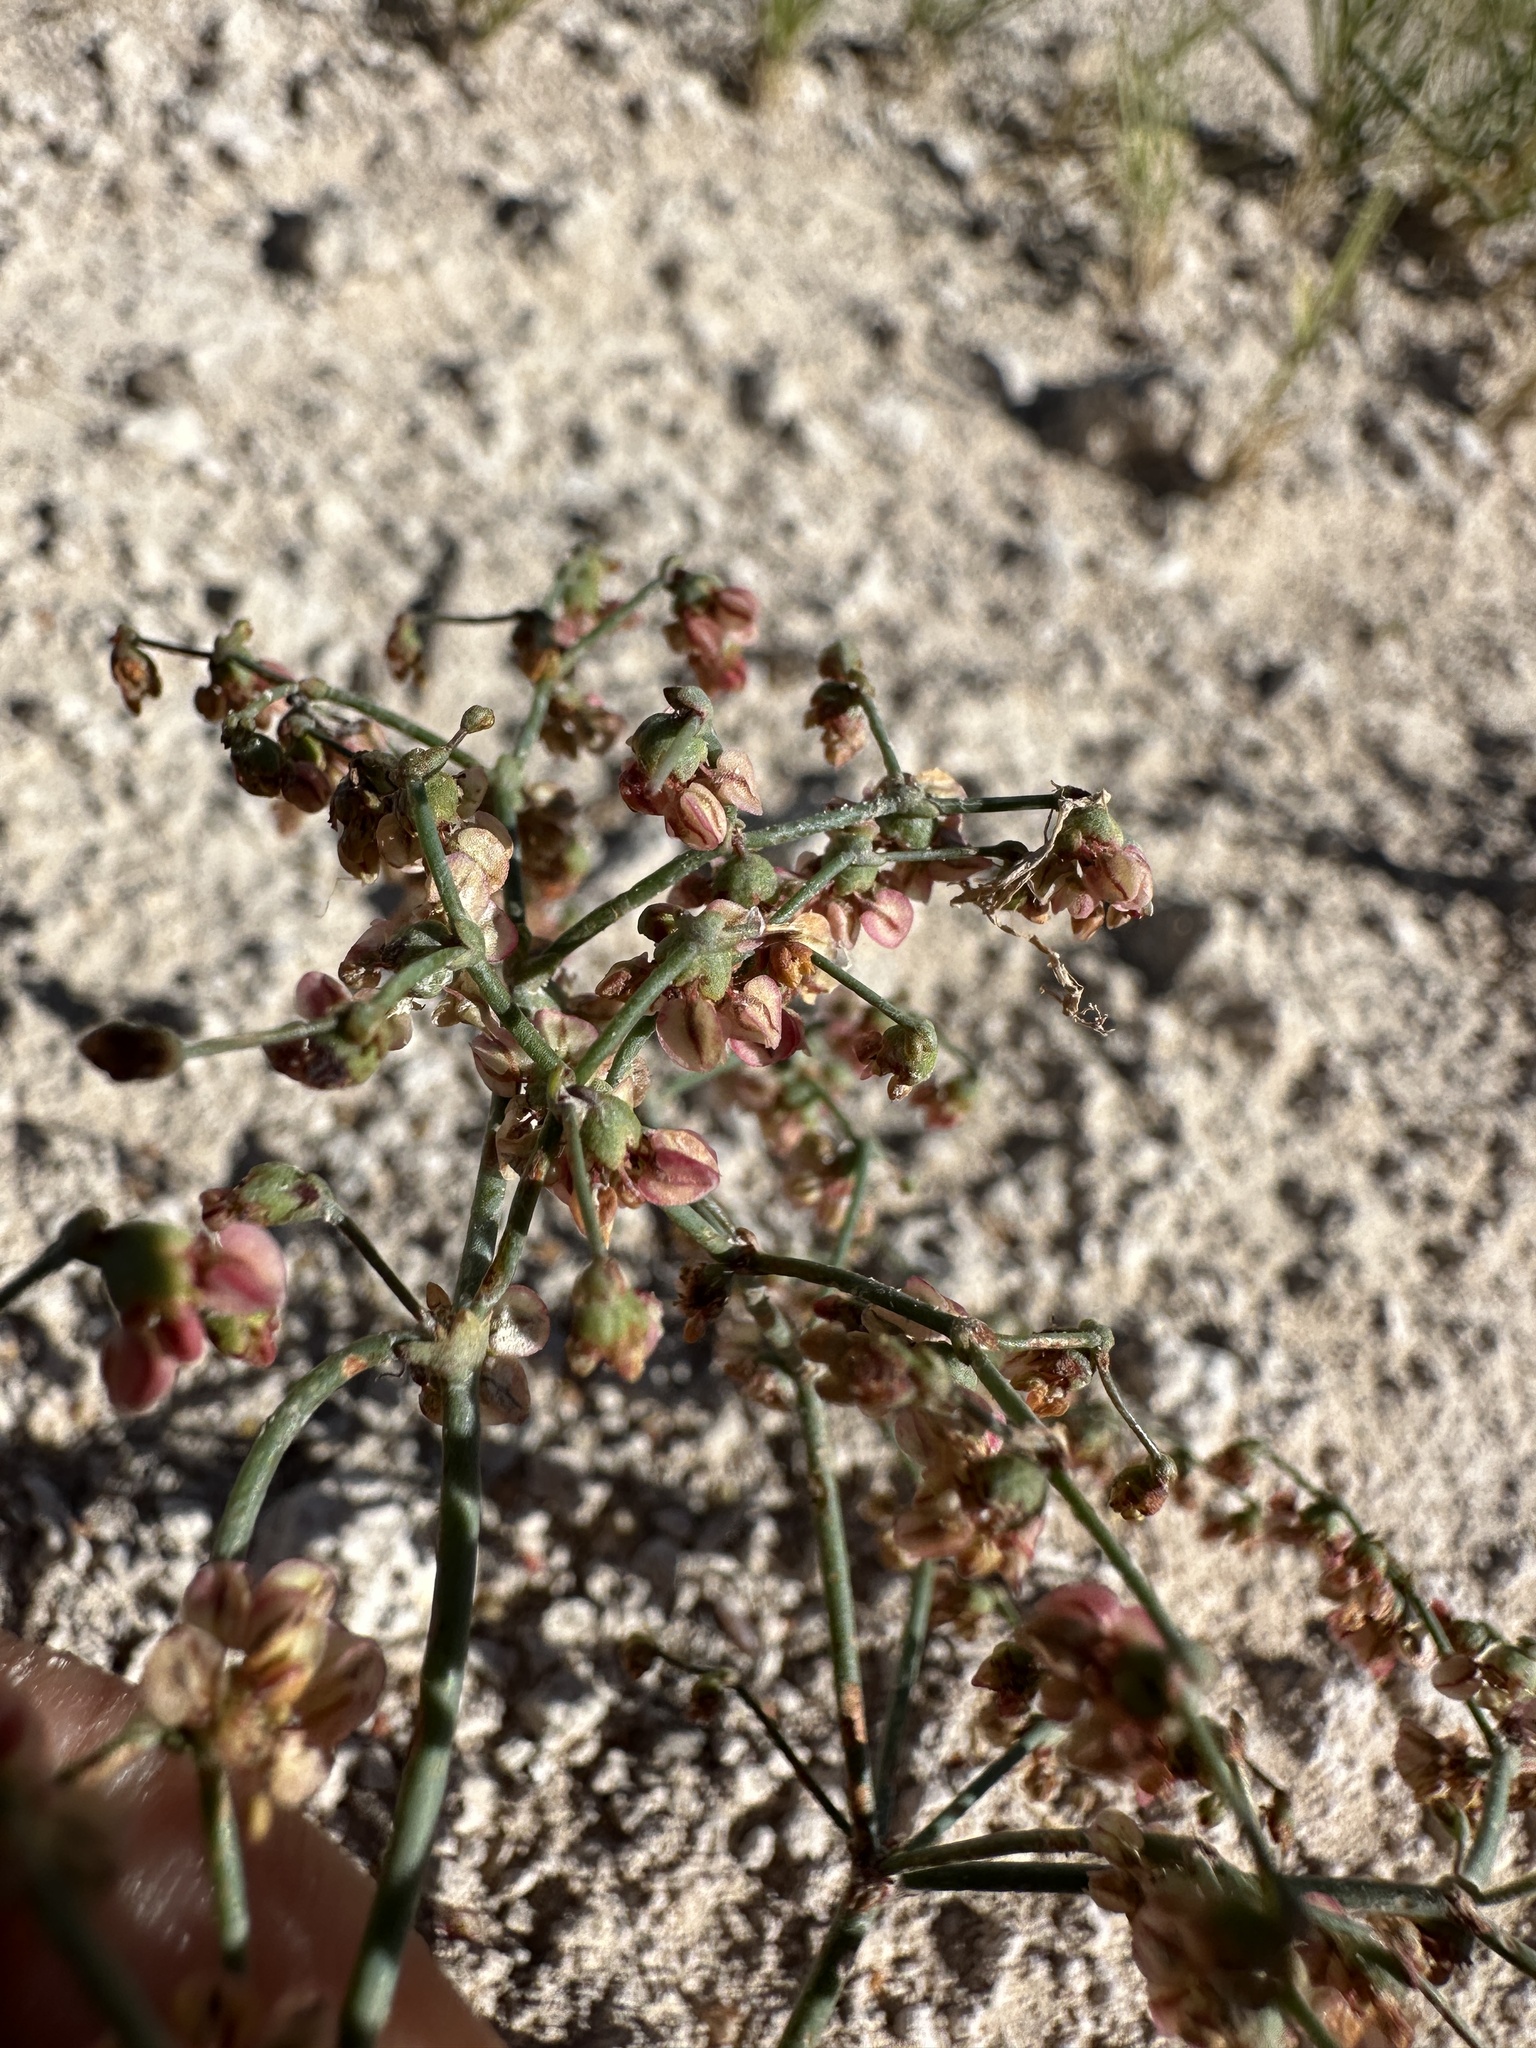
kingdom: Plantae
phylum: Tracheophyta
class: Magnoliopsida
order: Caryophyllales
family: Polygonaceae
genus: Eriogonum
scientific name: Eriogonum hookeri
